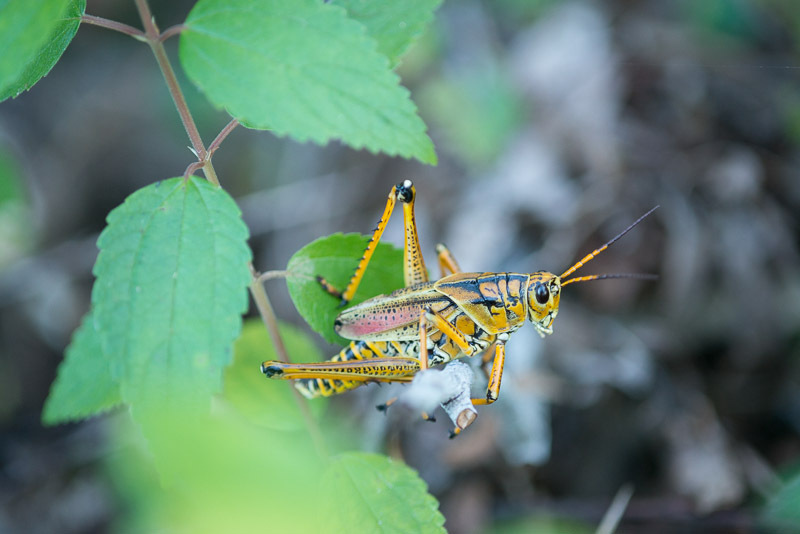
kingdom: Animalia
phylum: Arthropoda
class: Insecta
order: Orthoptera
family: Romaleidae
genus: Romalea
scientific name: Romalea microptera
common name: Eastern lubber grasshopper
